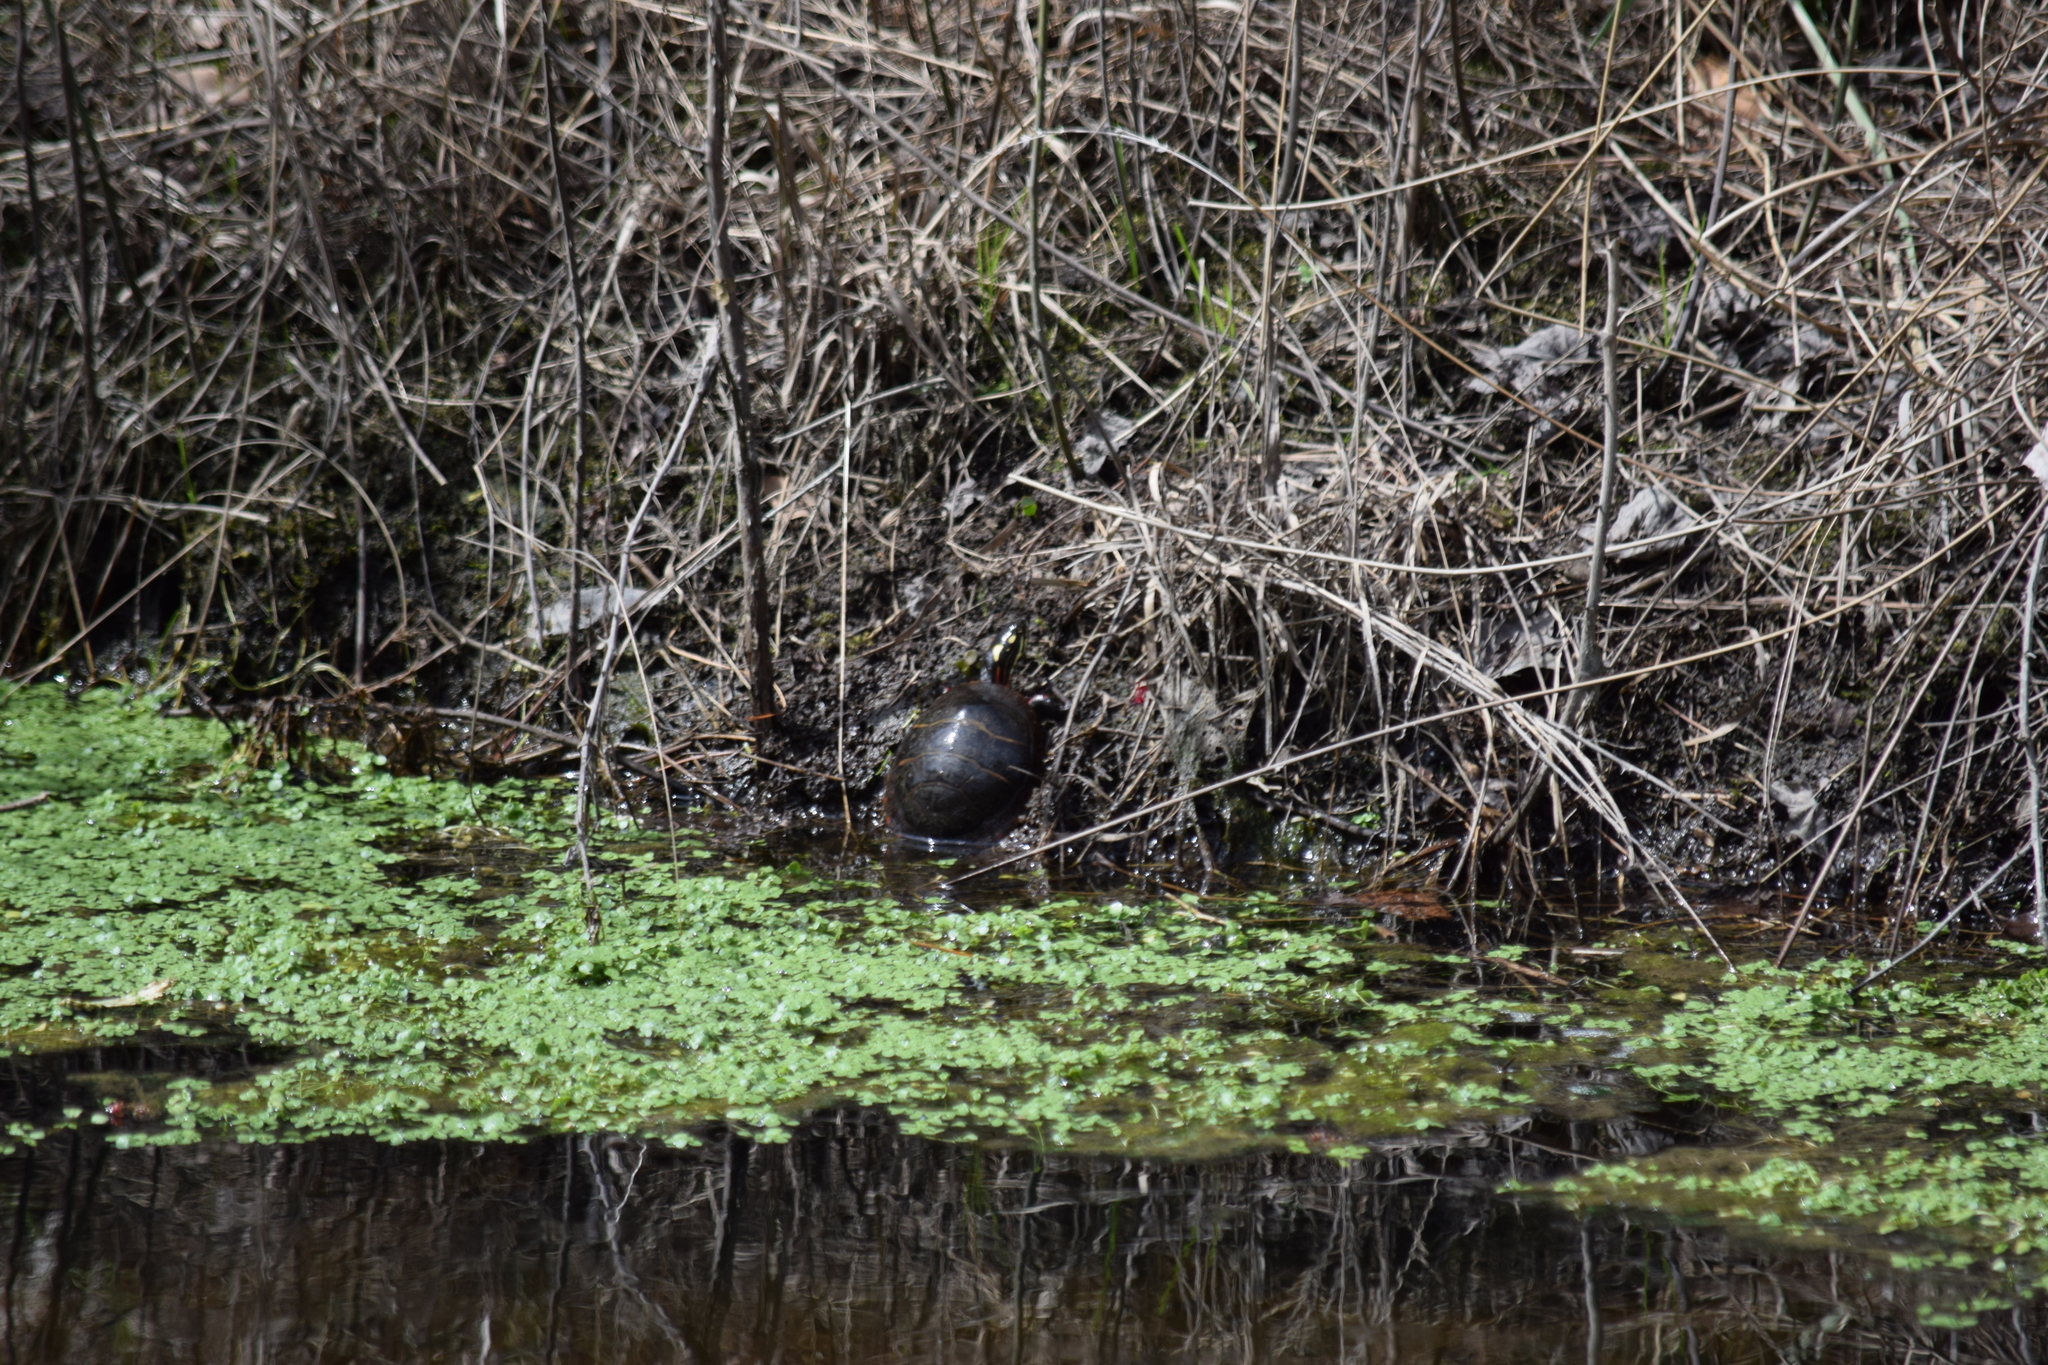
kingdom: Animalia
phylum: Chordata
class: Testudines
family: Emydidae
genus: Chrysemys
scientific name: Chrysemys picta
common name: Painted turtle
